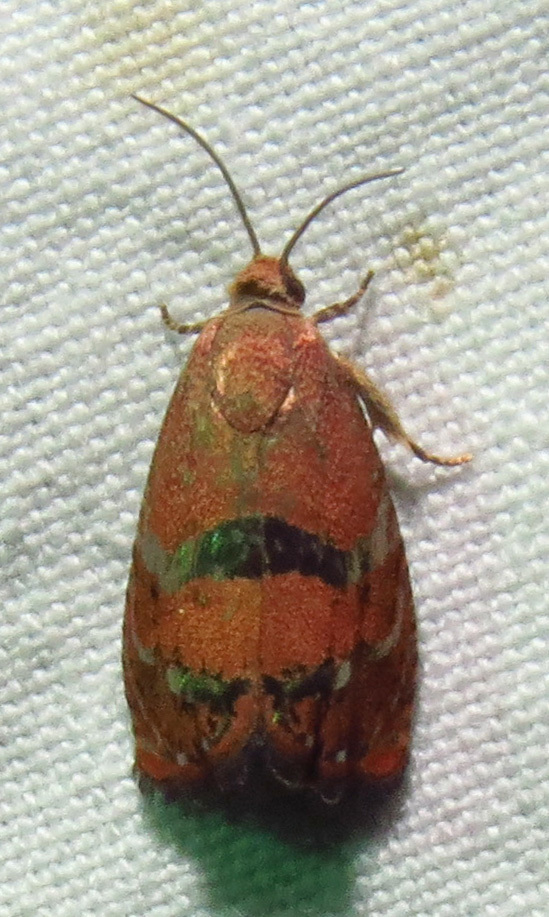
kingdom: Animalia
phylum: Arthropoda
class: Insecta
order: Lepidoptera
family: Tortricidae
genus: Cydia
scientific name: Cydia latiferreana
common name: Filbertworm moth
